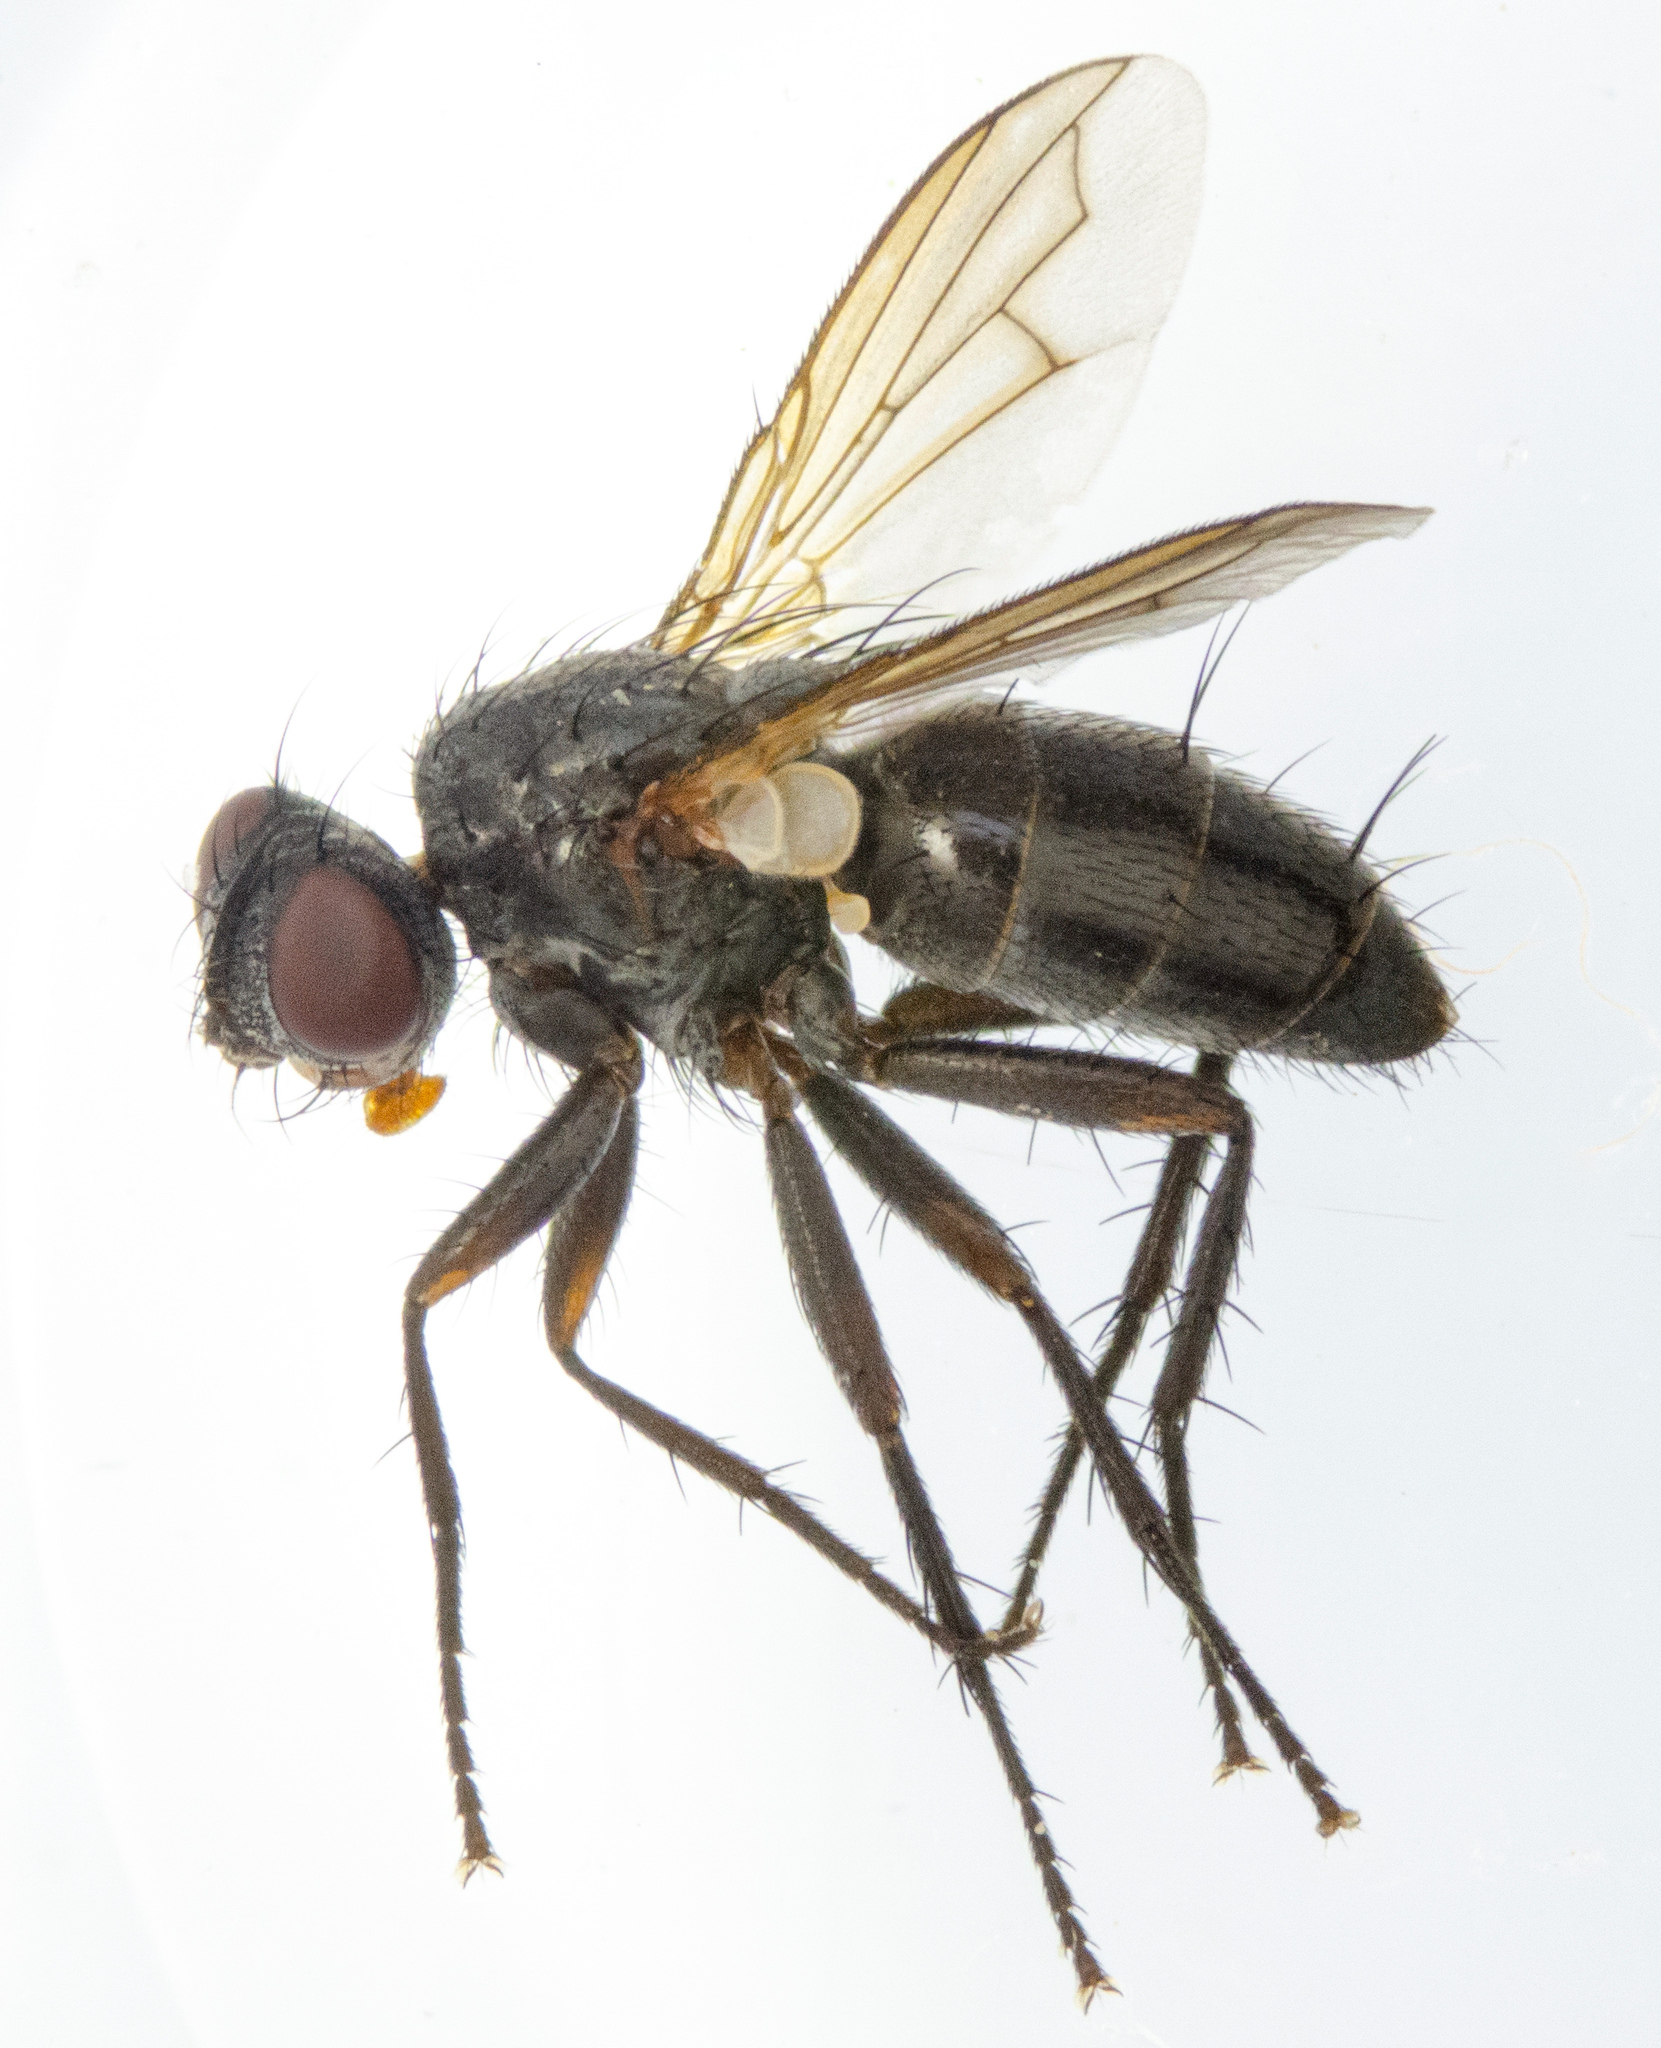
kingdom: Animalia
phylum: Arthropoda
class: Insecta
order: Diptera
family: Calliphoridae
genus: Melanophora
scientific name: Melanophora roralis
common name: Smoky-winged woodlouse-fly
